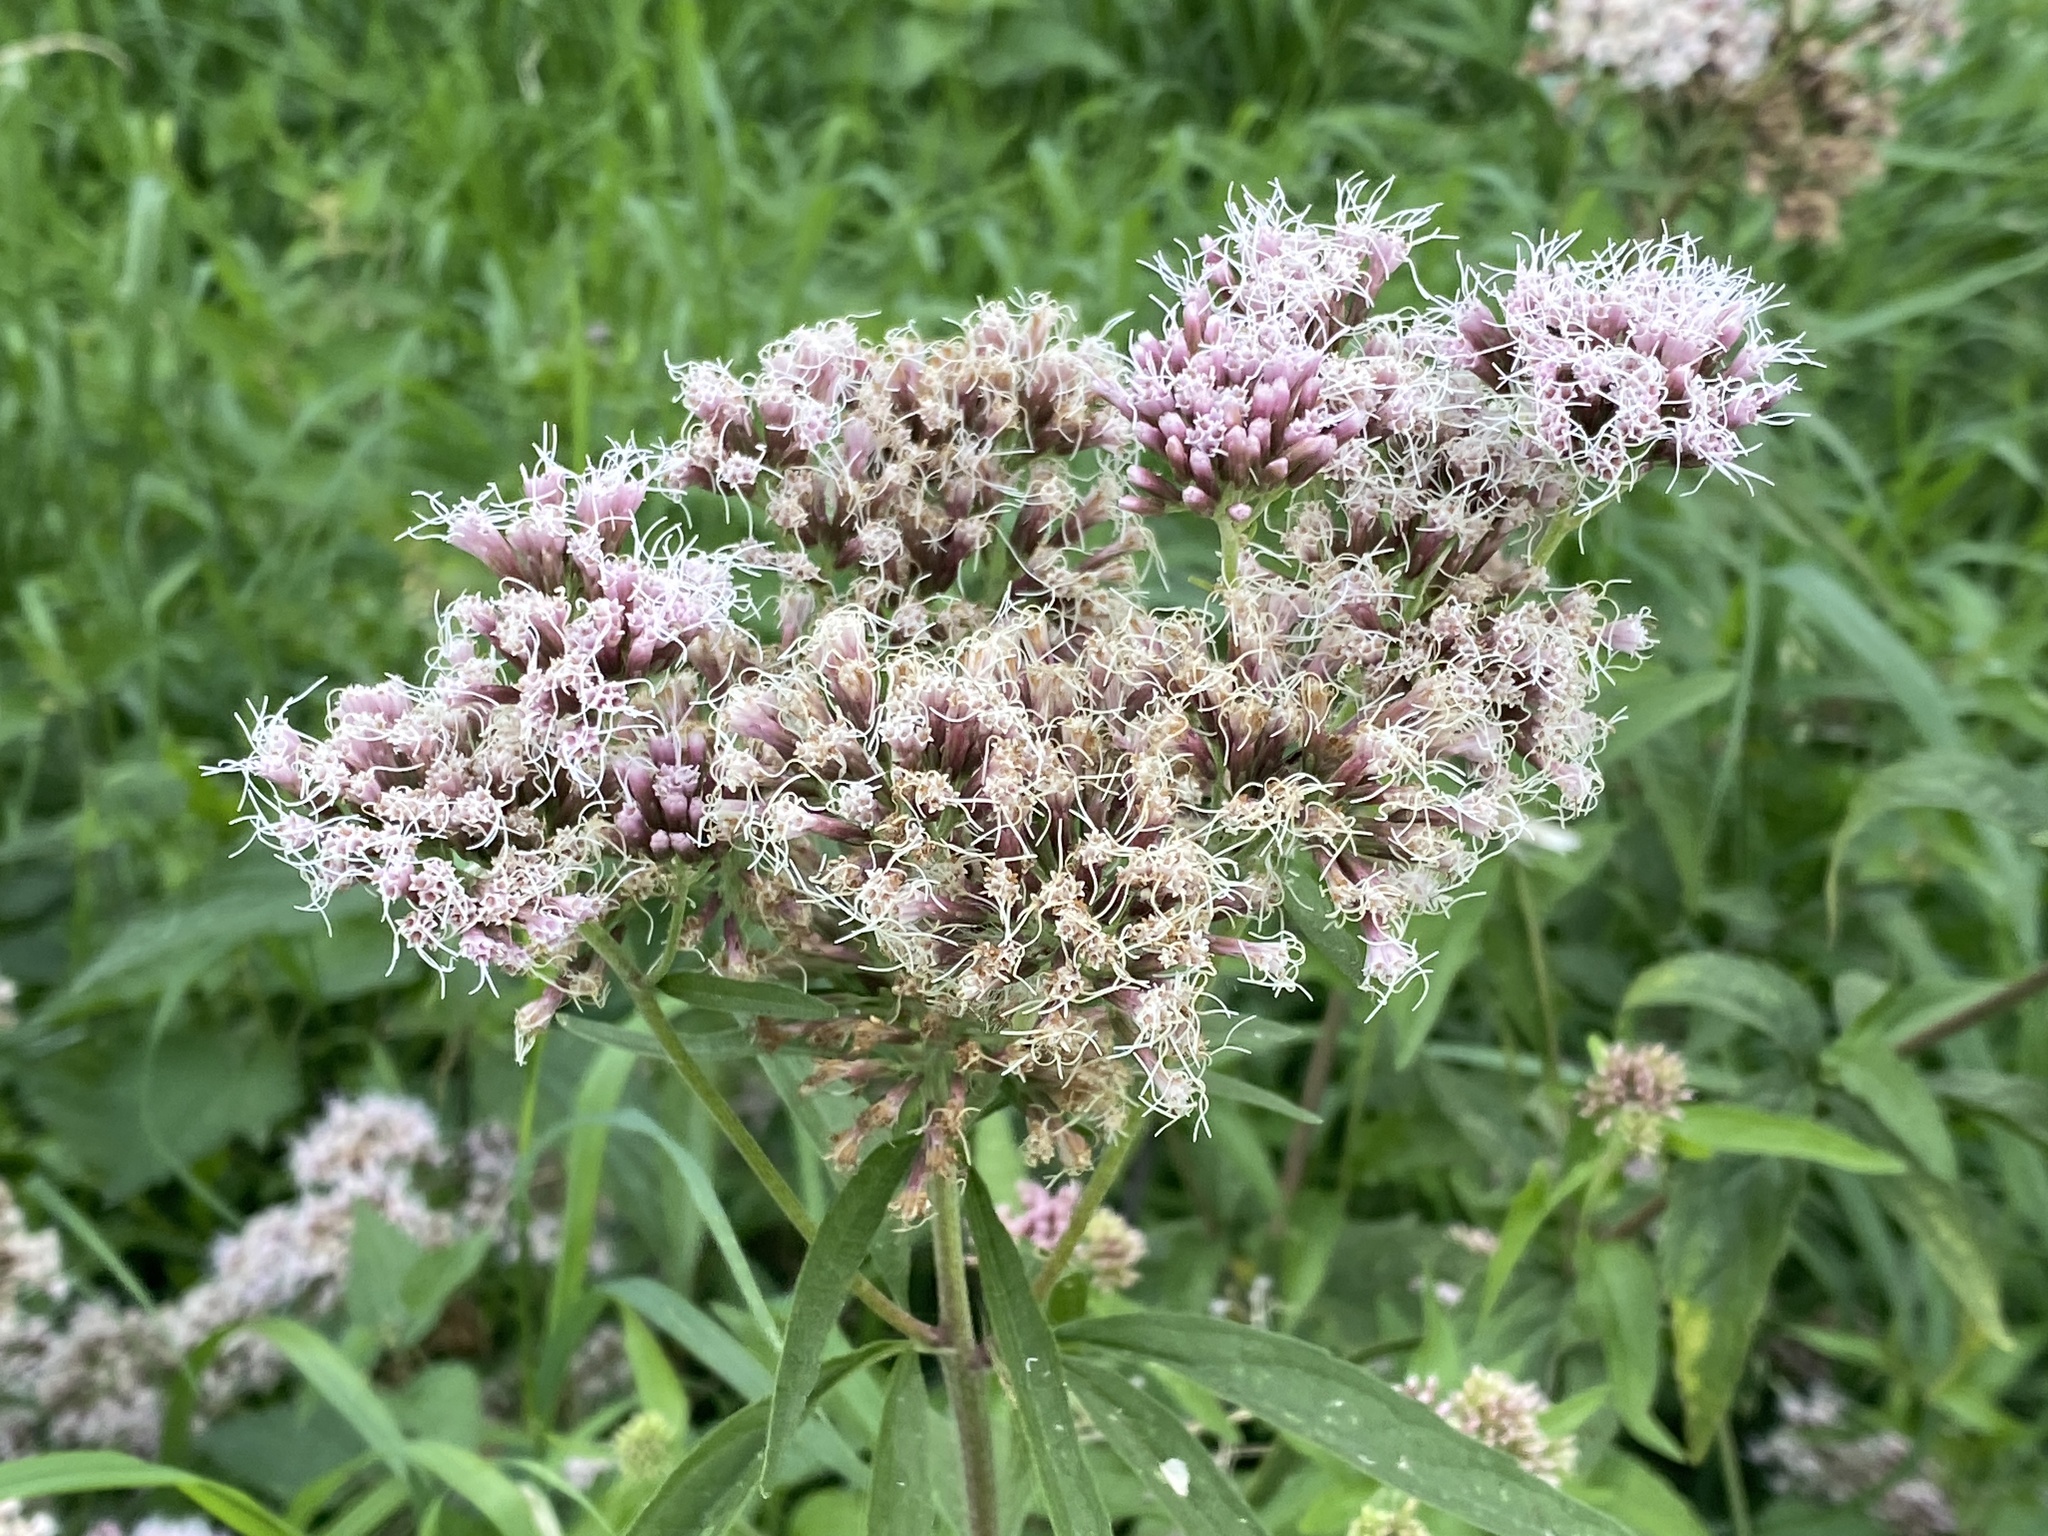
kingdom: Plantae
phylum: Tracheophyta
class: Magnoliopsida
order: Asterales
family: Asteraceae
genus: Eupatorium
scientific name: Eupatorium cannabinum
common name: Hemp-agrimony
